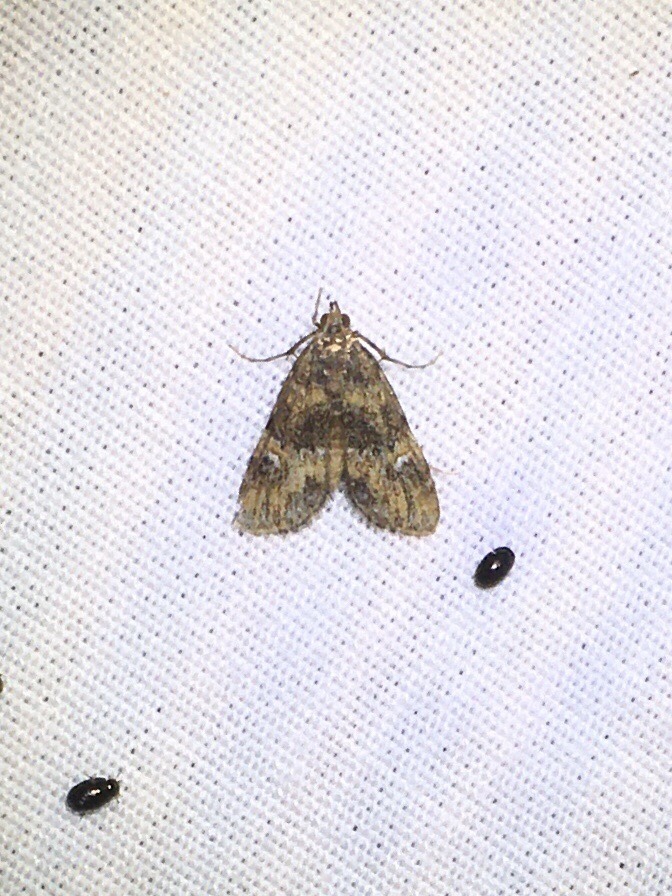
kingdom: Animalia
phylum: Arthropoda
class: Insecta
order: Lepidoptera
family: Crambidae
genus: Elophila
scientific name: Elophila obliteralis
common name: Waterlily leafcutter moth
